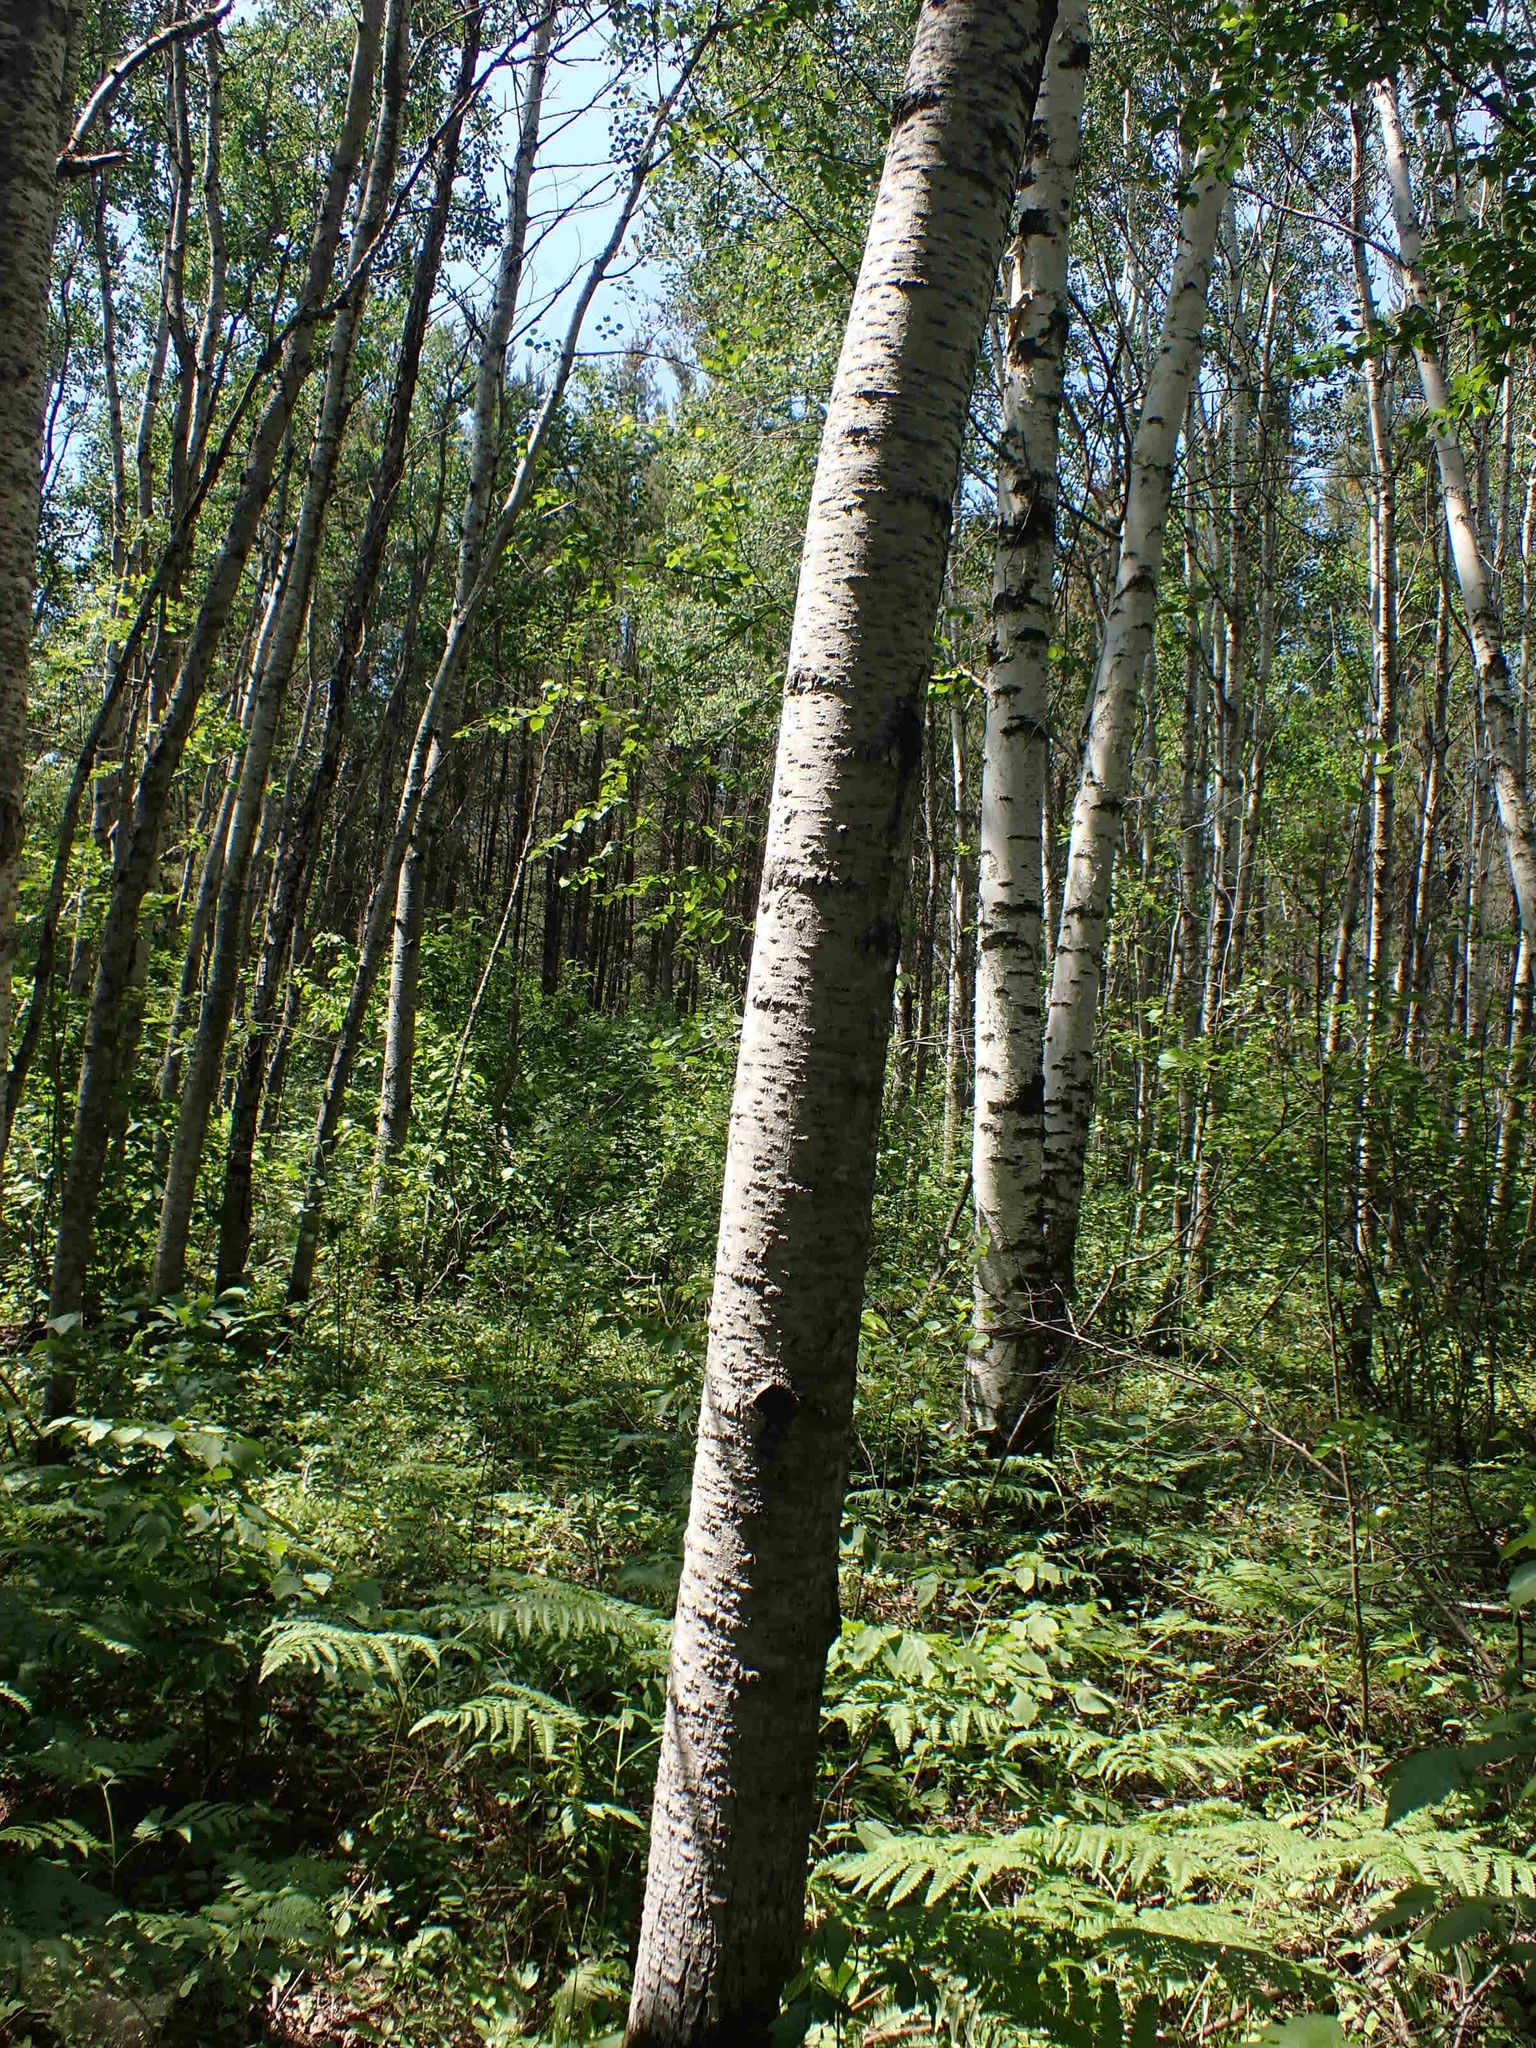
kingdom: Plantae
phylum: Tracheophyta
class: Magnoliopsida
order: Malpighiales
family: Salicaceae
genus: Populus
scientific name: Populus tremuloides
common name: Quaking aspen
